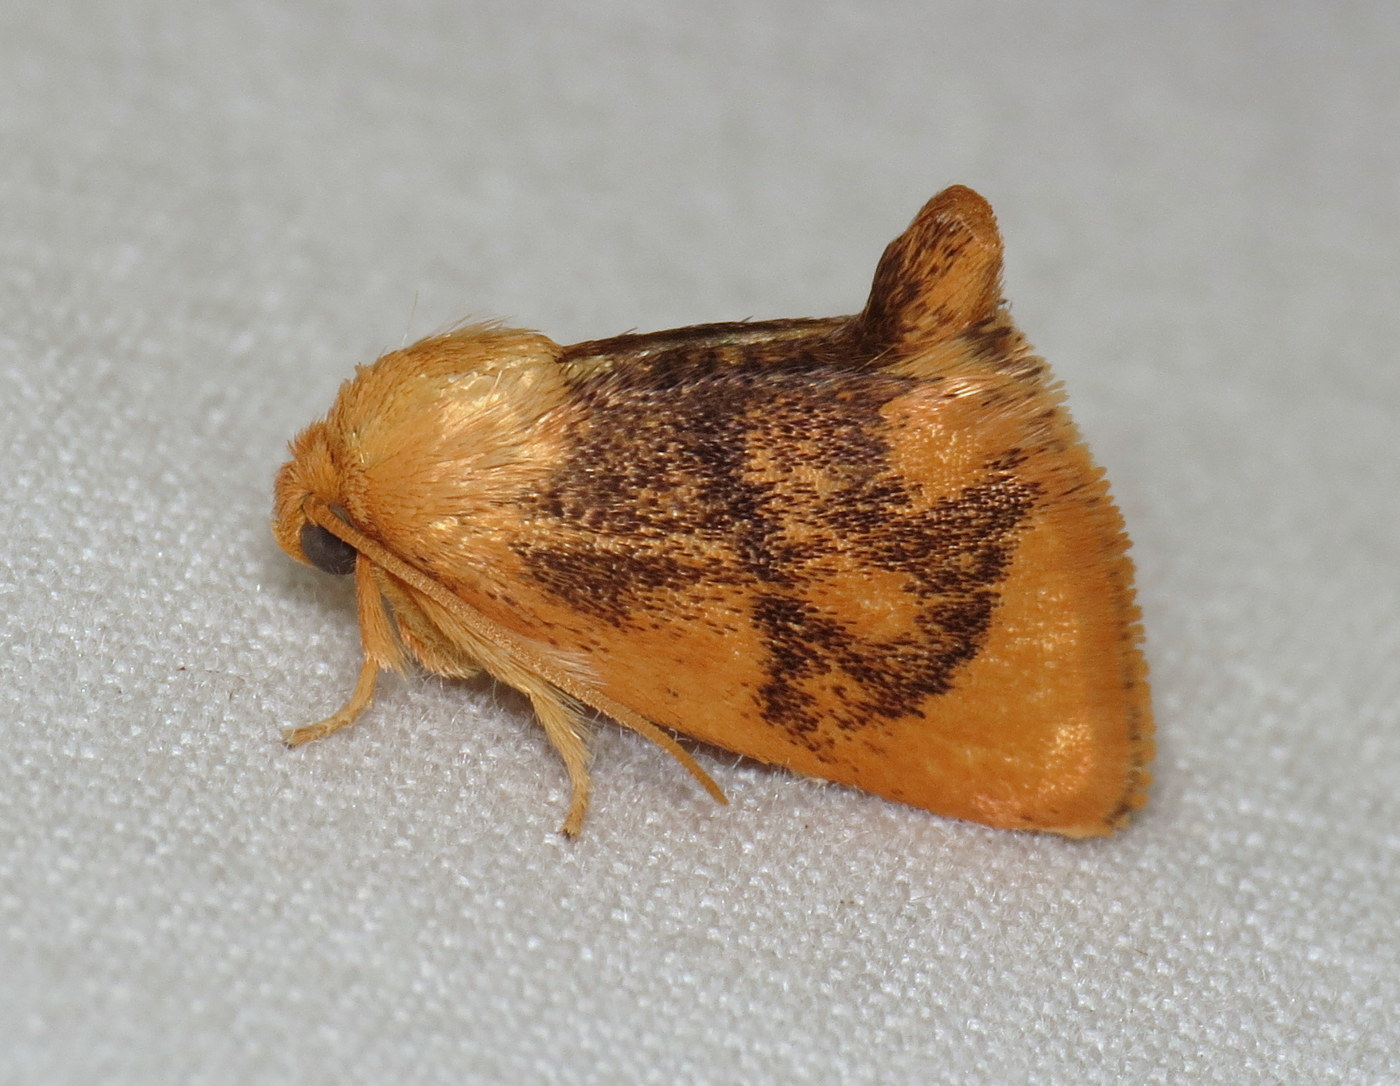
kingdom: Animalia
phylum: Arthropoda
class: Insecta
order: Lepidoptera
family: Limacodidae
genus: Tortricidia
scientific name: Tortricidia flexuosa
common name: Abbreviated button slug moth
